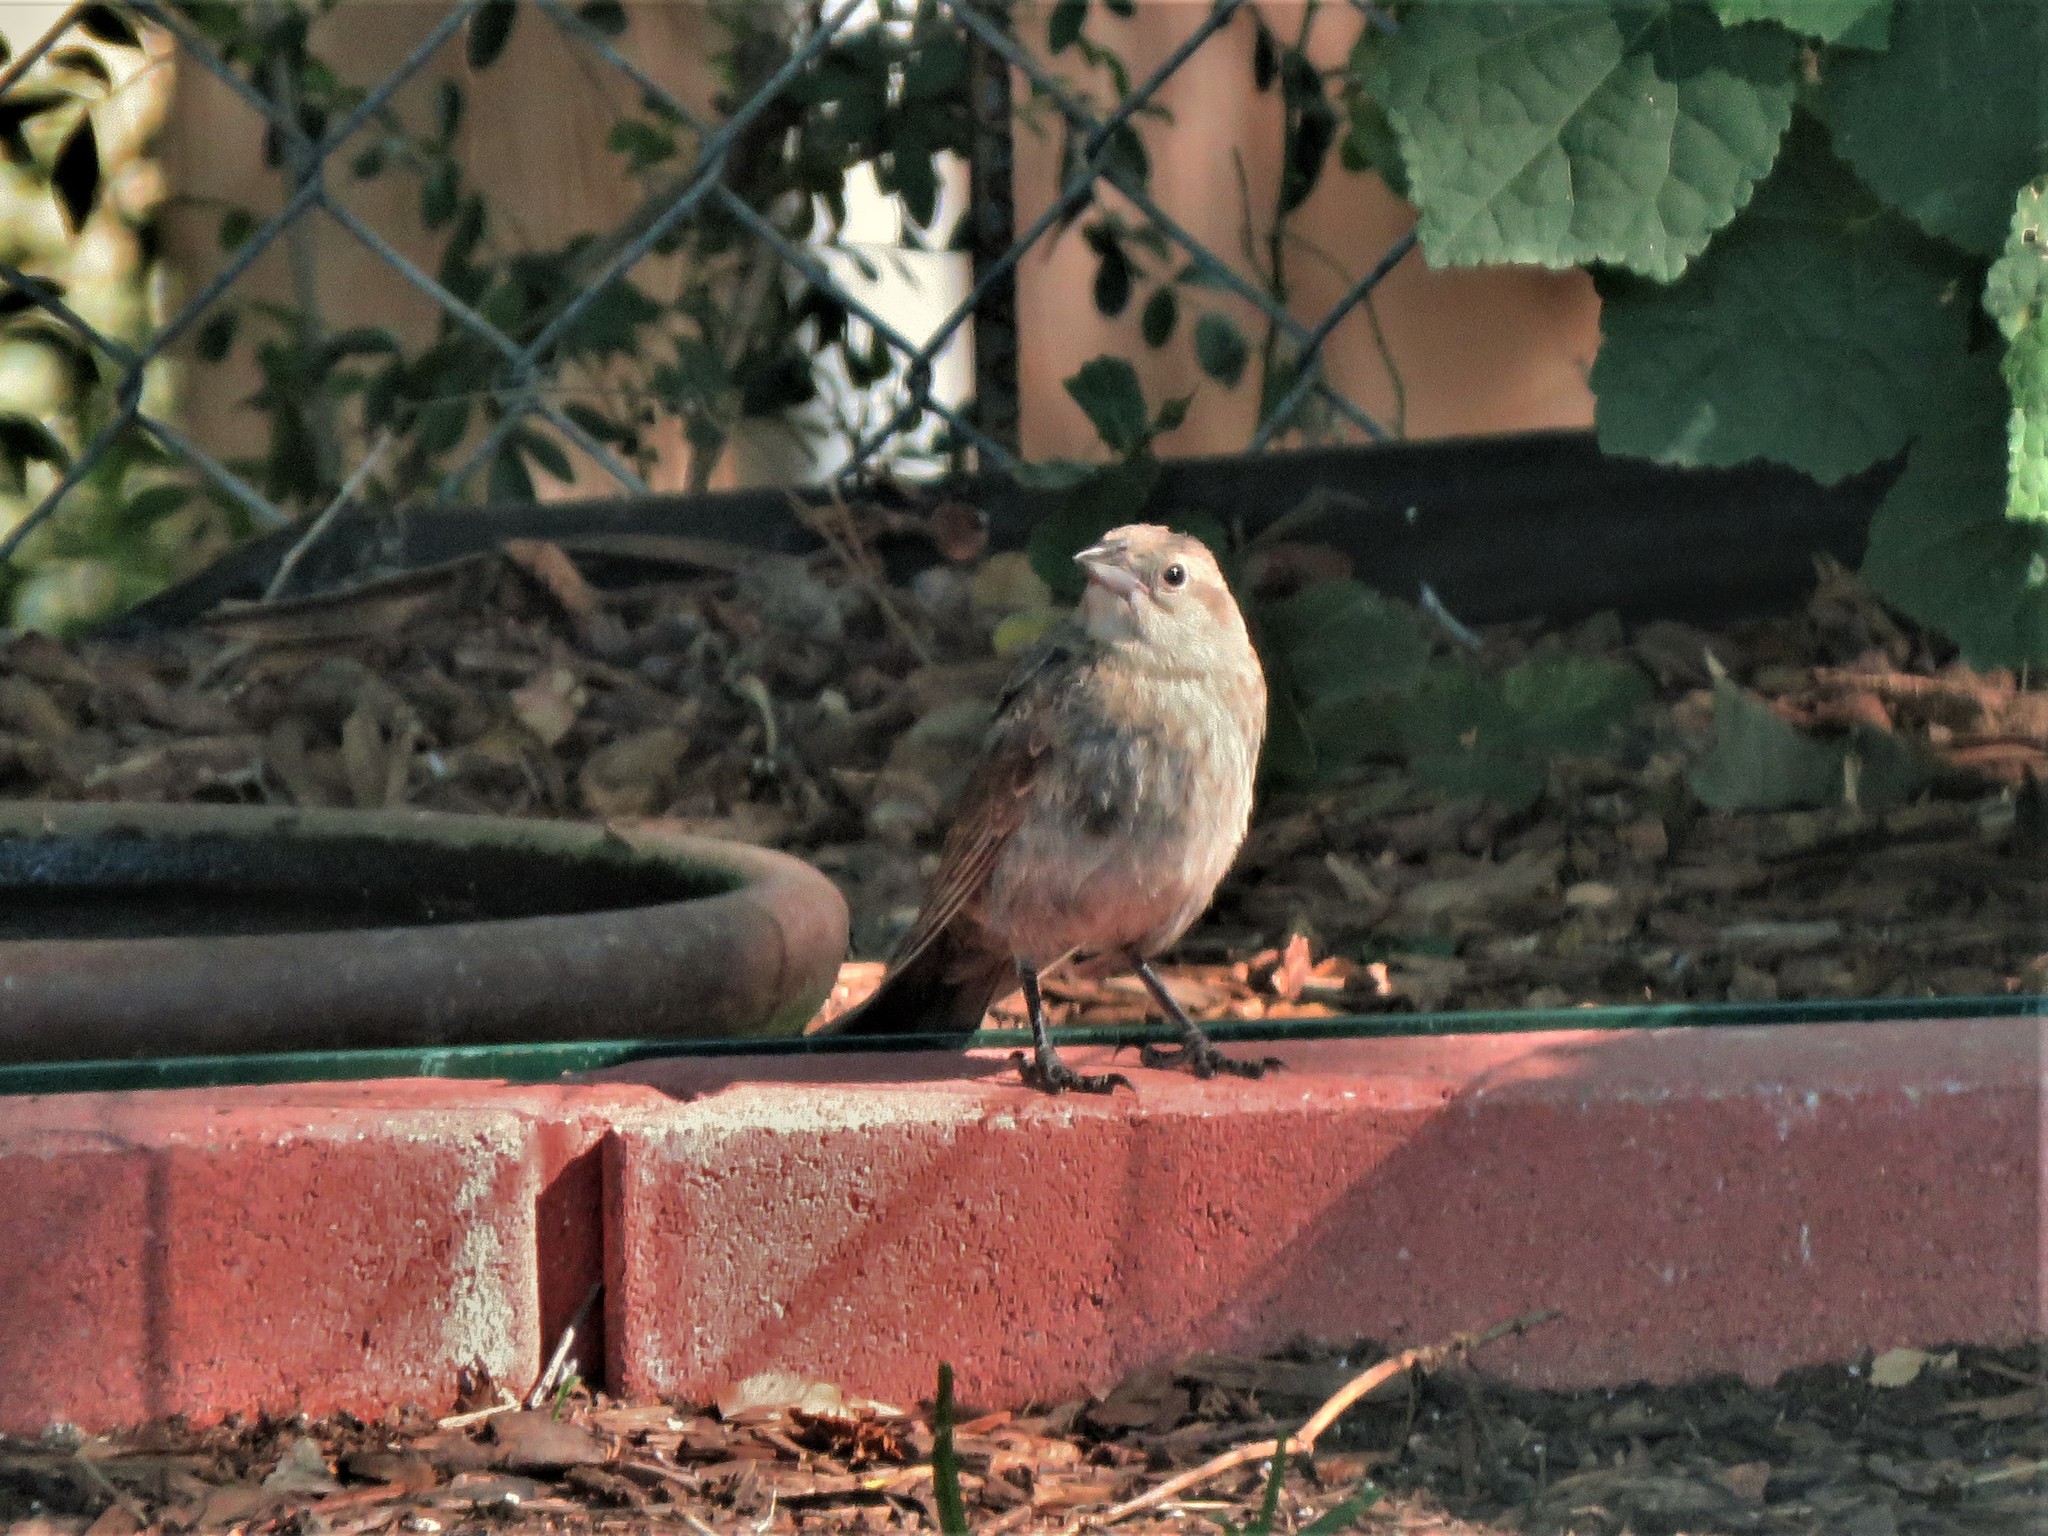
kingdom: Animalia
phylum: Chordata
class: Aves
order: Passeriformes
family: Icteridae
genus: Molothrus
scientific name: Molothrus ater
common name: Brown-headed cowbird
